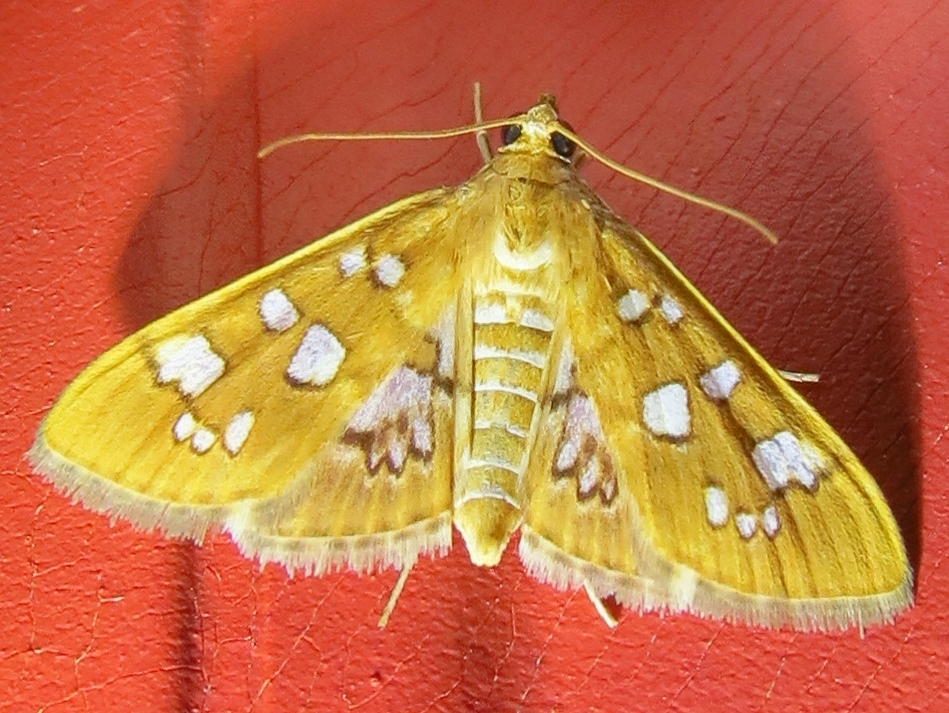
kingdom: Animalia
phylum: Arthropoda
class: Insecta
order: Lepidoptera
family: Crambidae
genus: Samea
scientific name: Samea baccatalis
